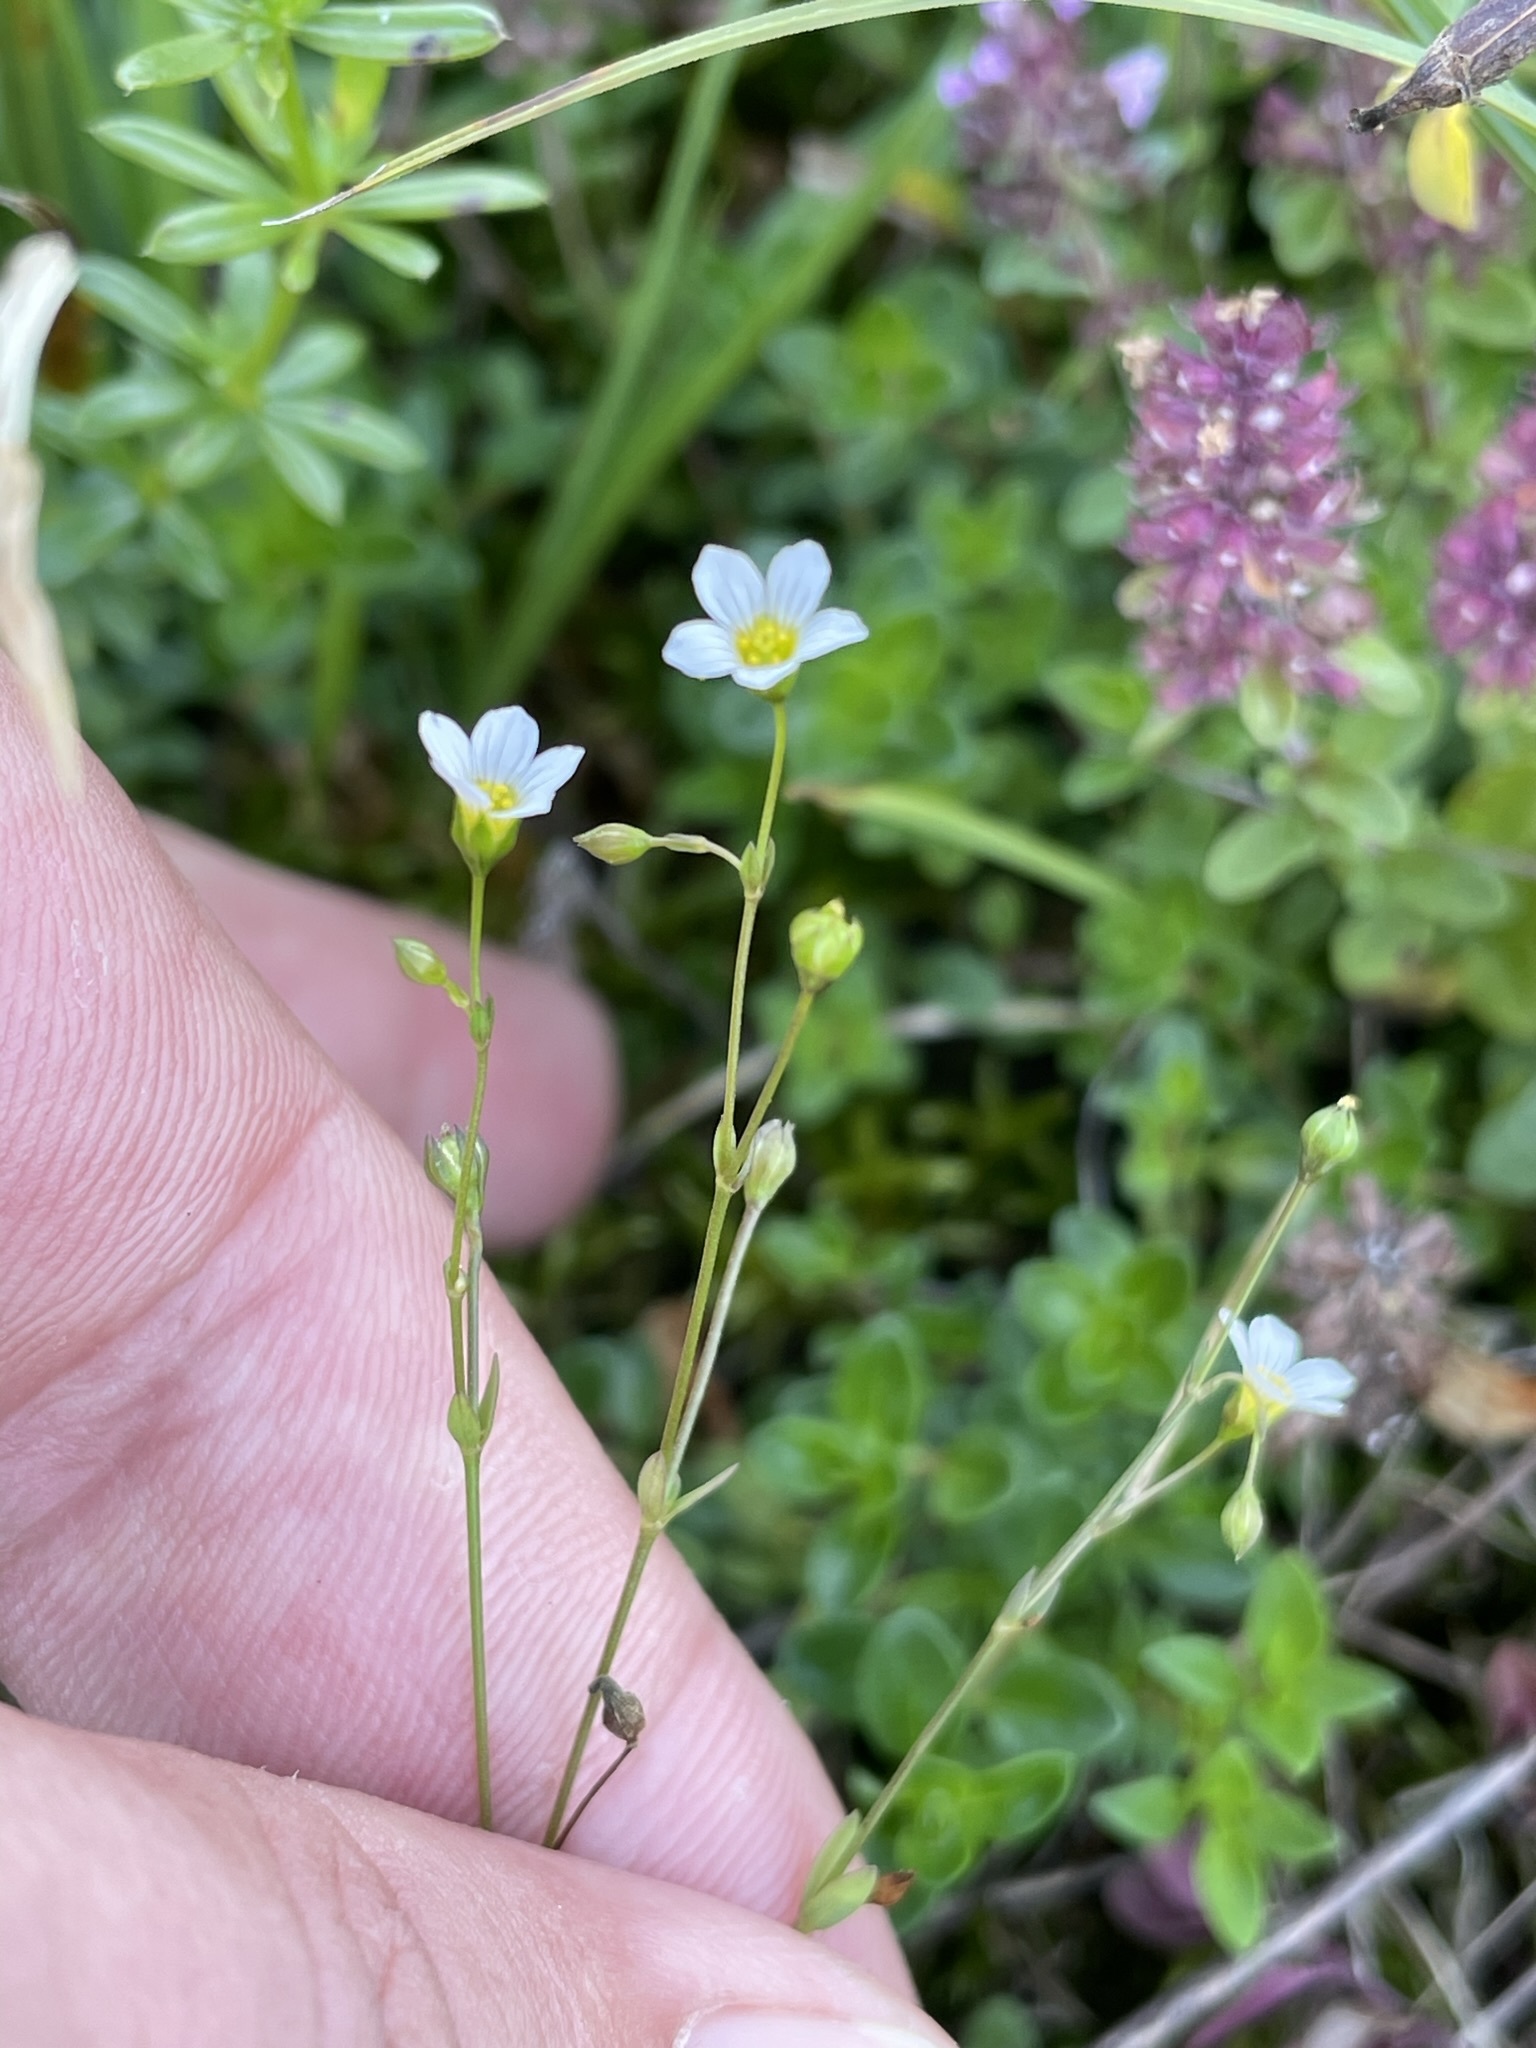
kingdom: Plantae
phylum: Tracheophyta
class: Magnoliopsida
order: Malpighiales
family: Linaceae
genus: Linum
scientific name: Linum catharticum
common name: Fairy flax
